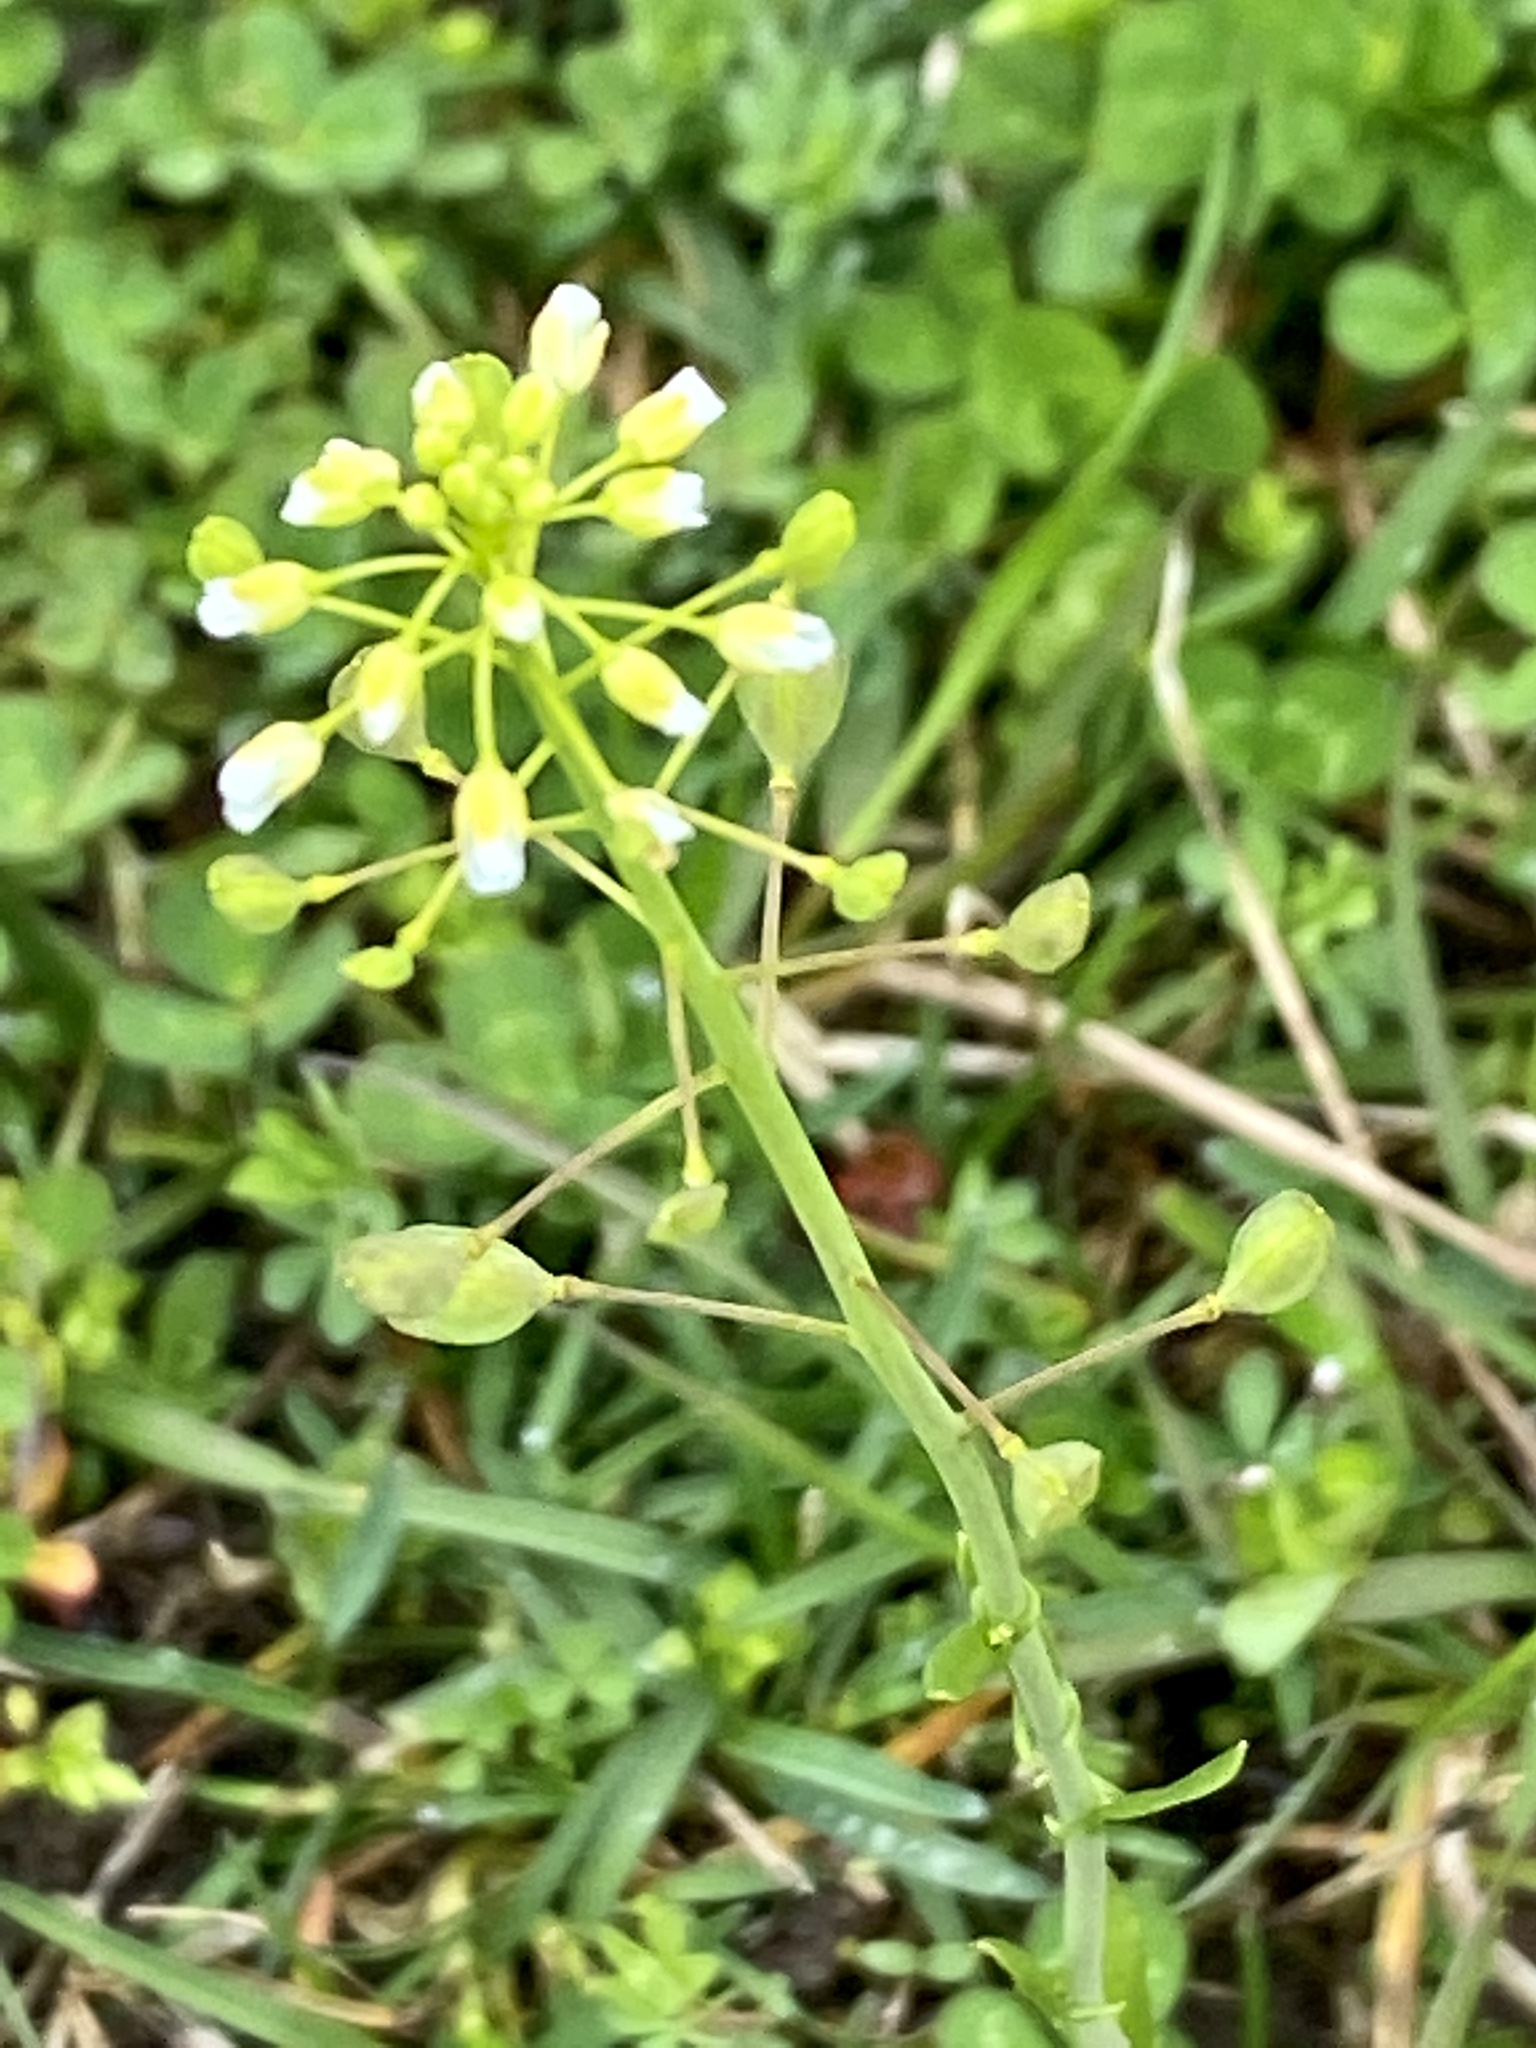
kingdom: Plantae
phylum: Tracheophyta
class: Magnoliopsida
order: Brassicales
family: Brassicaceae
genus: Mummenhoffia
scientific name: Mummenhoffia alliacea
